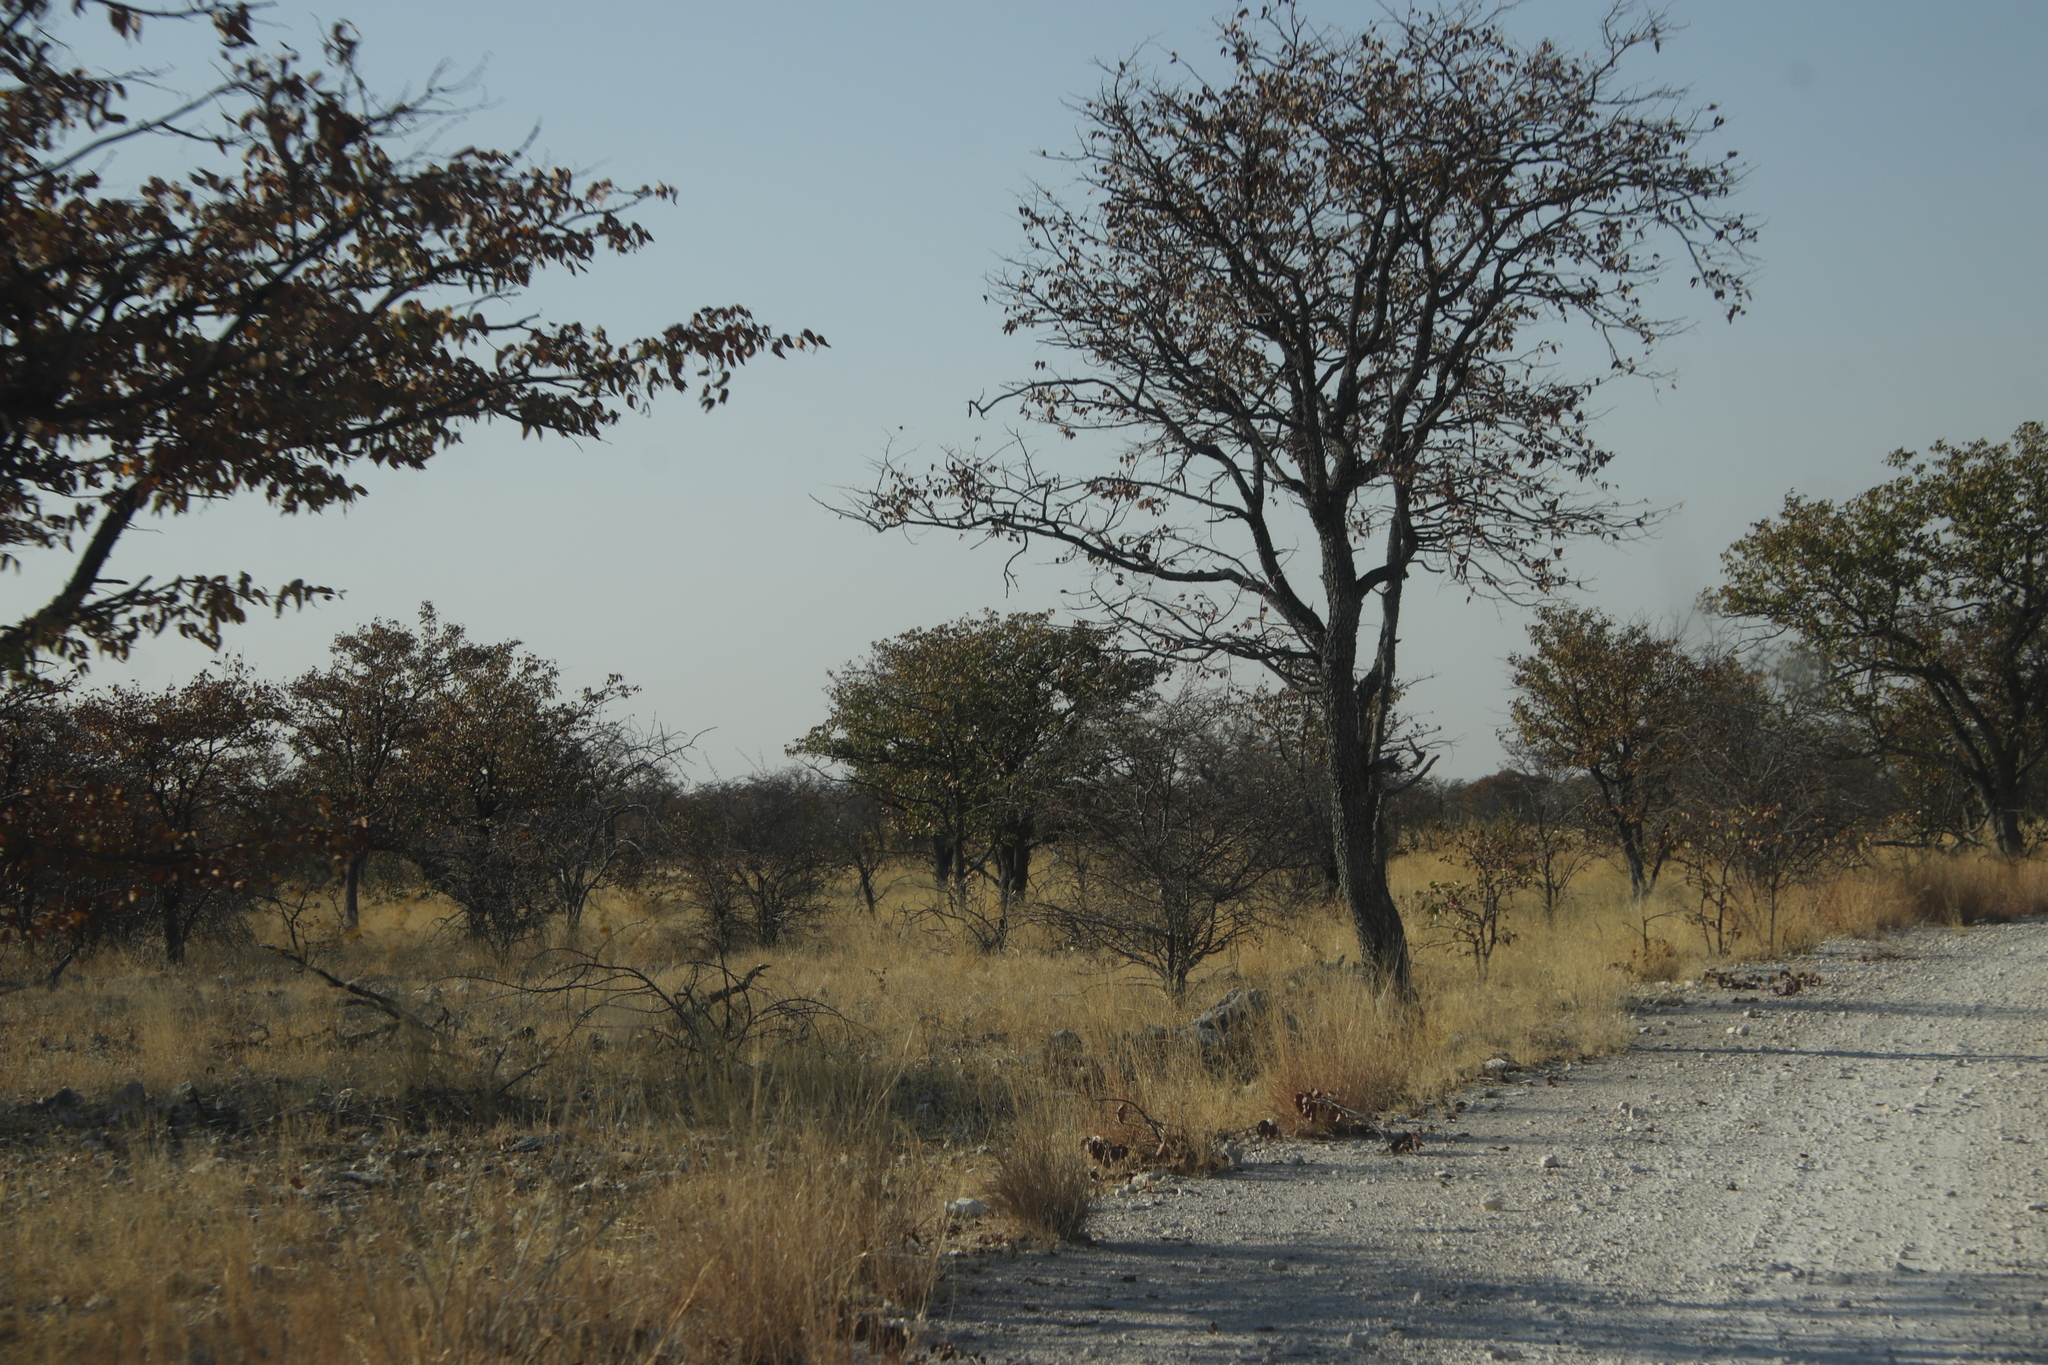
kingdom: Plantae
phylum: Tracheophyta
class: Magnoliopsida
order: Fabales
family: Fabaceae
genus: Colophospermum
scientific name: Colophospermum mopane
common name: Mopane
